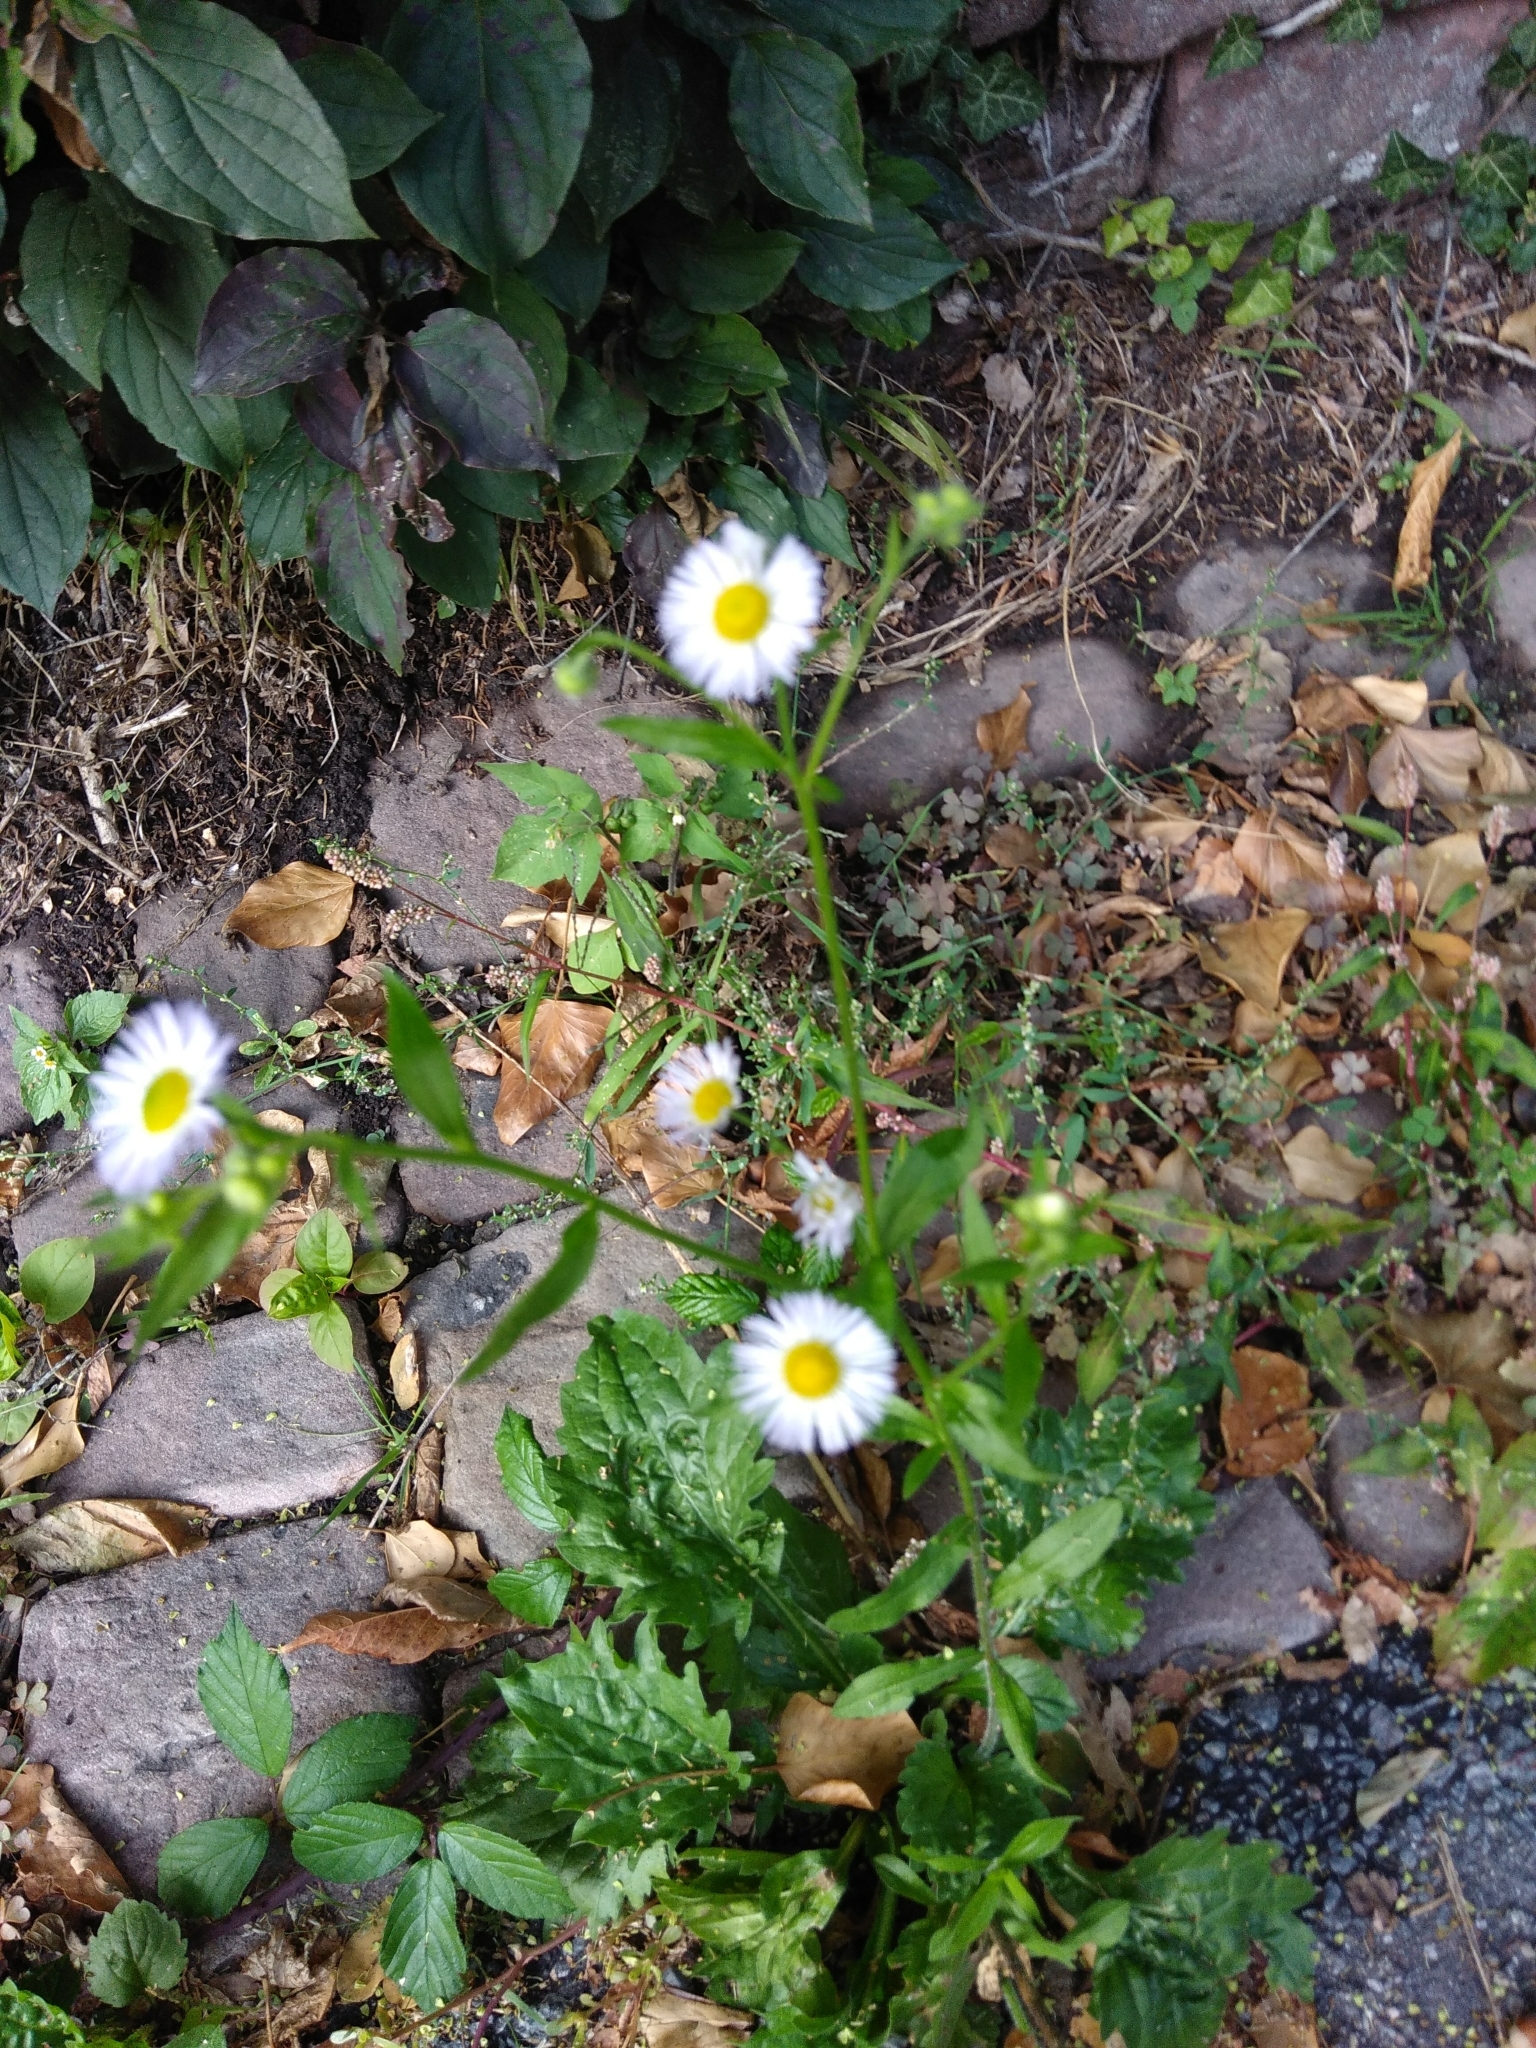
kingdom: Plantae
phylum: Tracheophyta
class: Magnoliopsida
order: Asterales
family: Asteraceae
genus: Erigeron
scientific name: Erigeron annuus
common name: Tall fleabane
